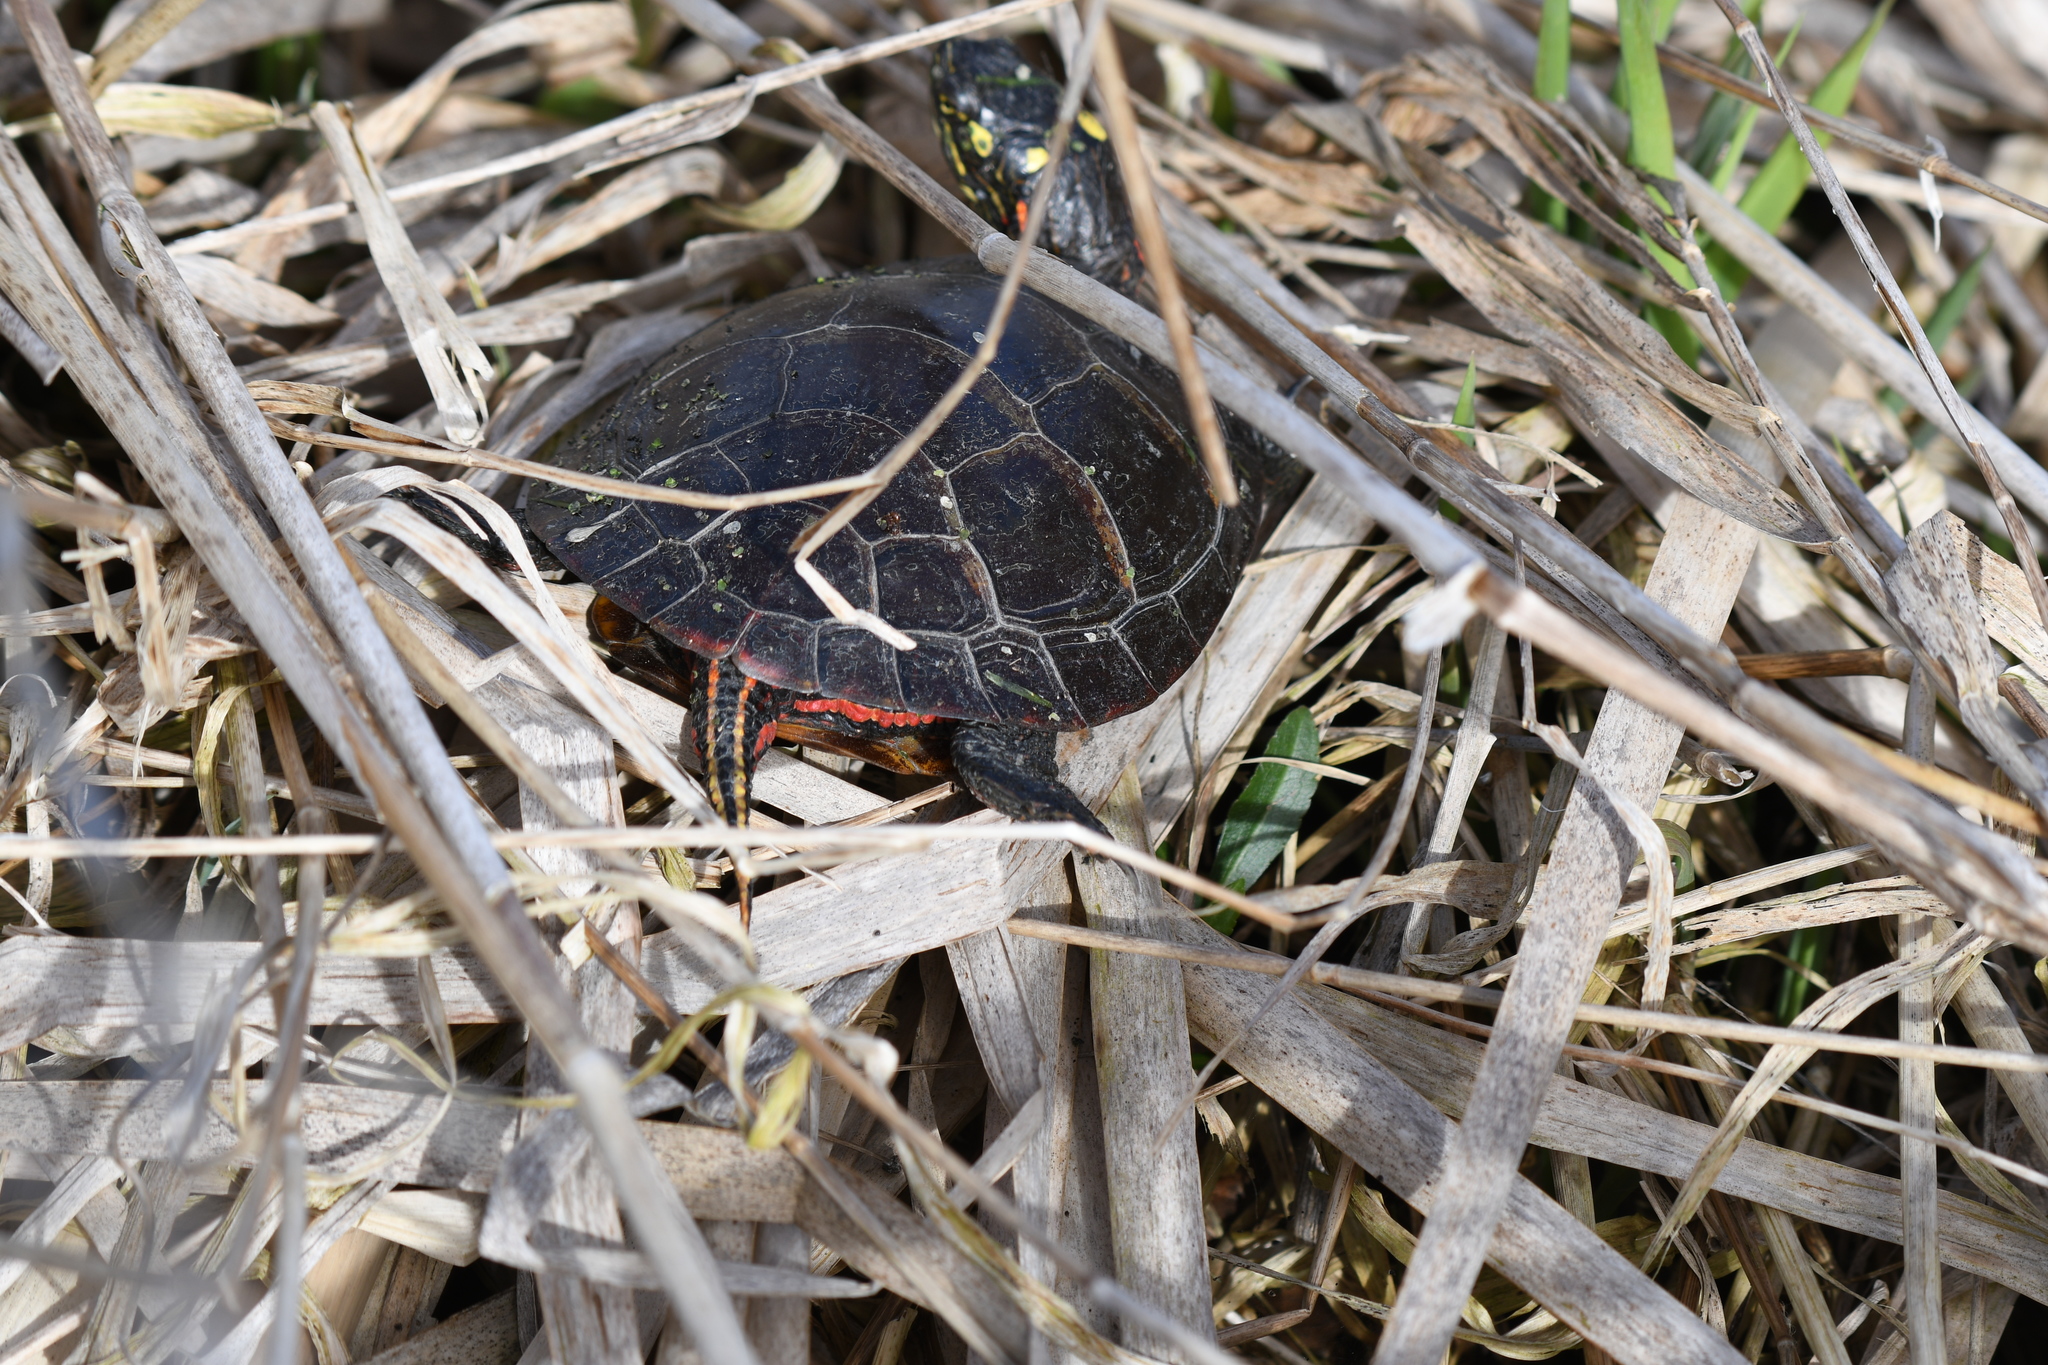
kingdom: Animalia
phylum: Chordata
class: Testudines
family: Emydidae
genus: Chrysemys
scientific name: Chrysemys picta
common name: Painted turtle
